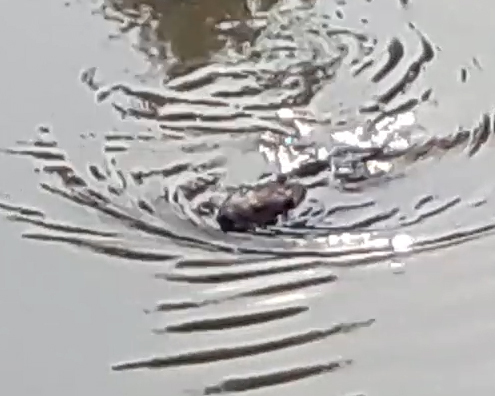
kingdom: Animalia
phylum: Chordata
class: Mammalia
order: Rodentia
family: Castoridae
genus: Castor
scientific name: Castor fiber
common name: Eurasian beaver
